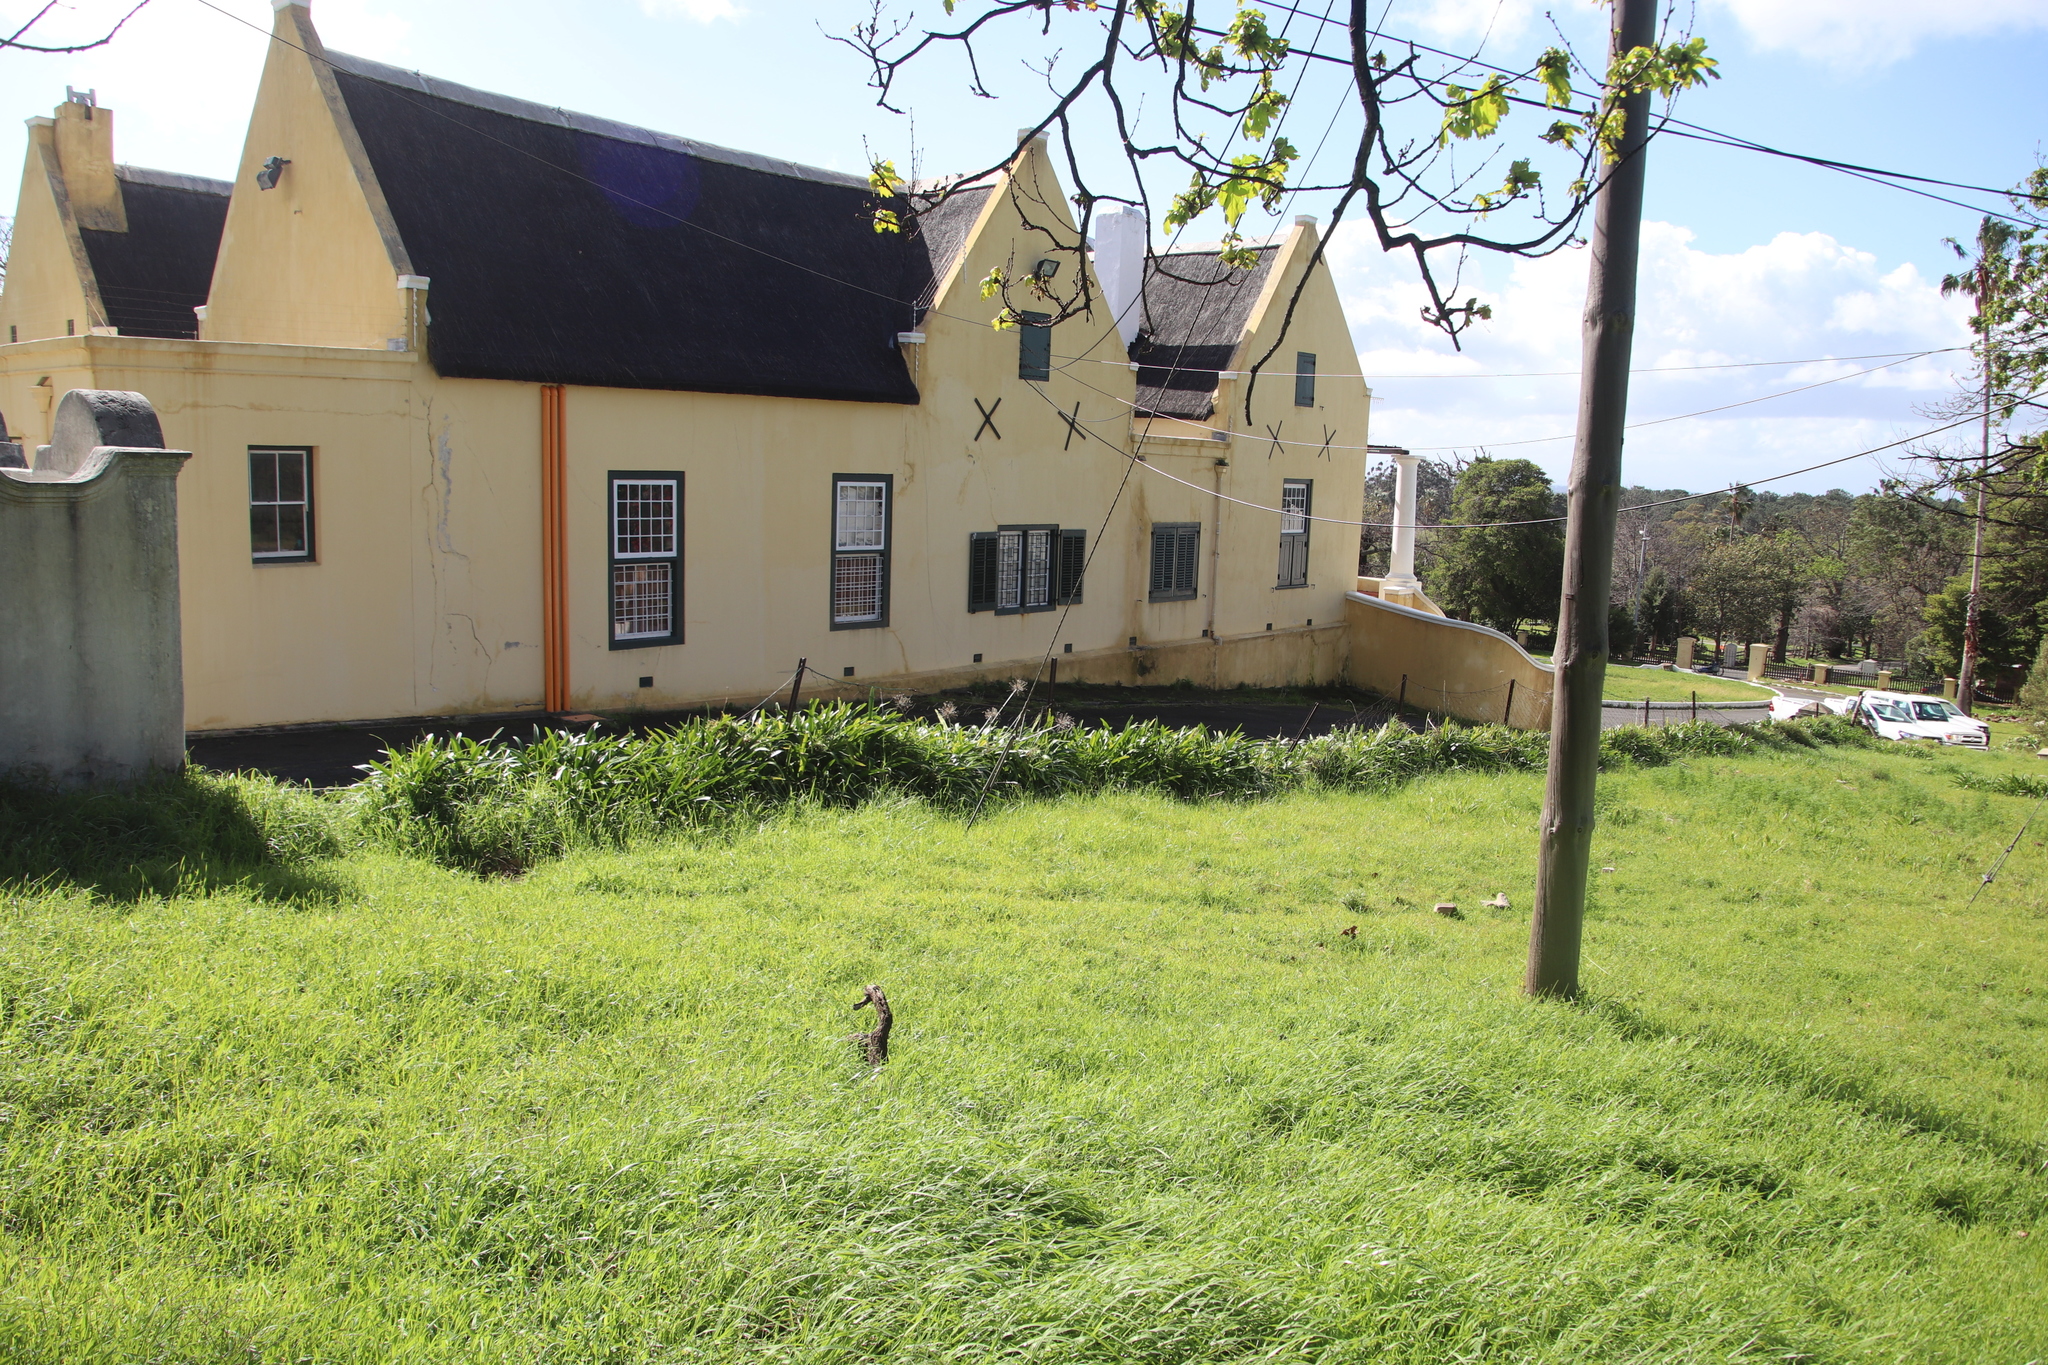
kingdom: Plantae
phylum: Tracheophyta
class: Liliopsida
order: Asparagales
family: Amaryllidaceae
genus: Agapanthus
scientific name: Agapanthus praecox
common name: African-lily
